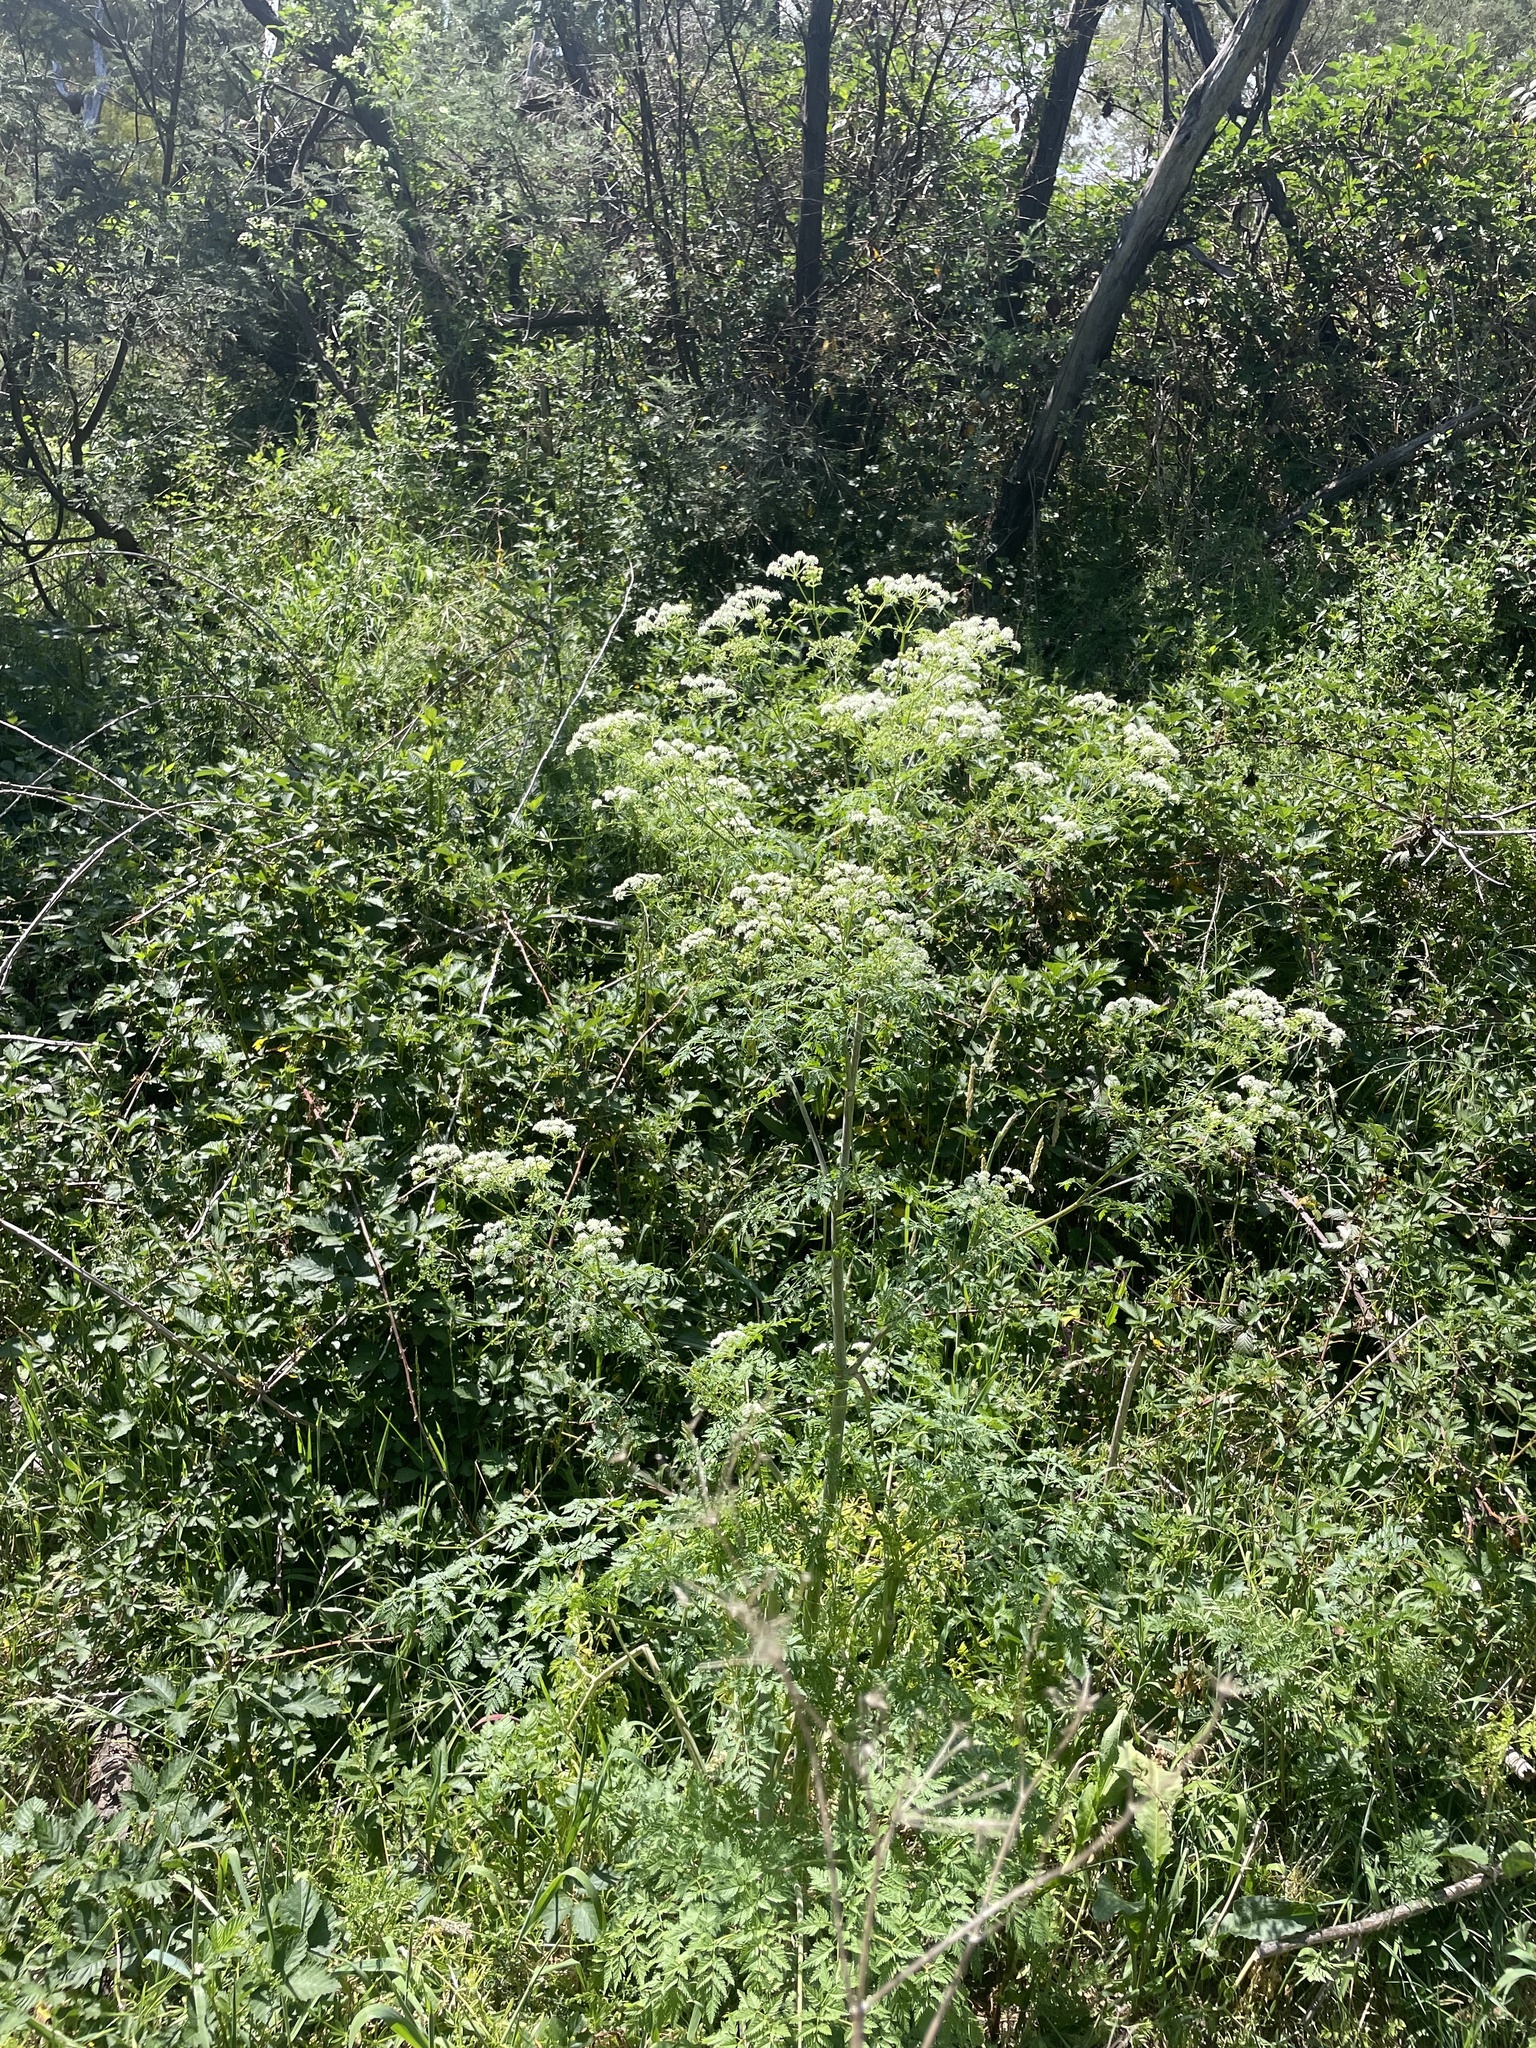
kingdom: Plantae
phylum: Tracheophyta
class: Magnoliopsida
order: Apiales
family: Apiaceae
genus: Conium
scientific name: Conium maculatum
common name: Hemlock
